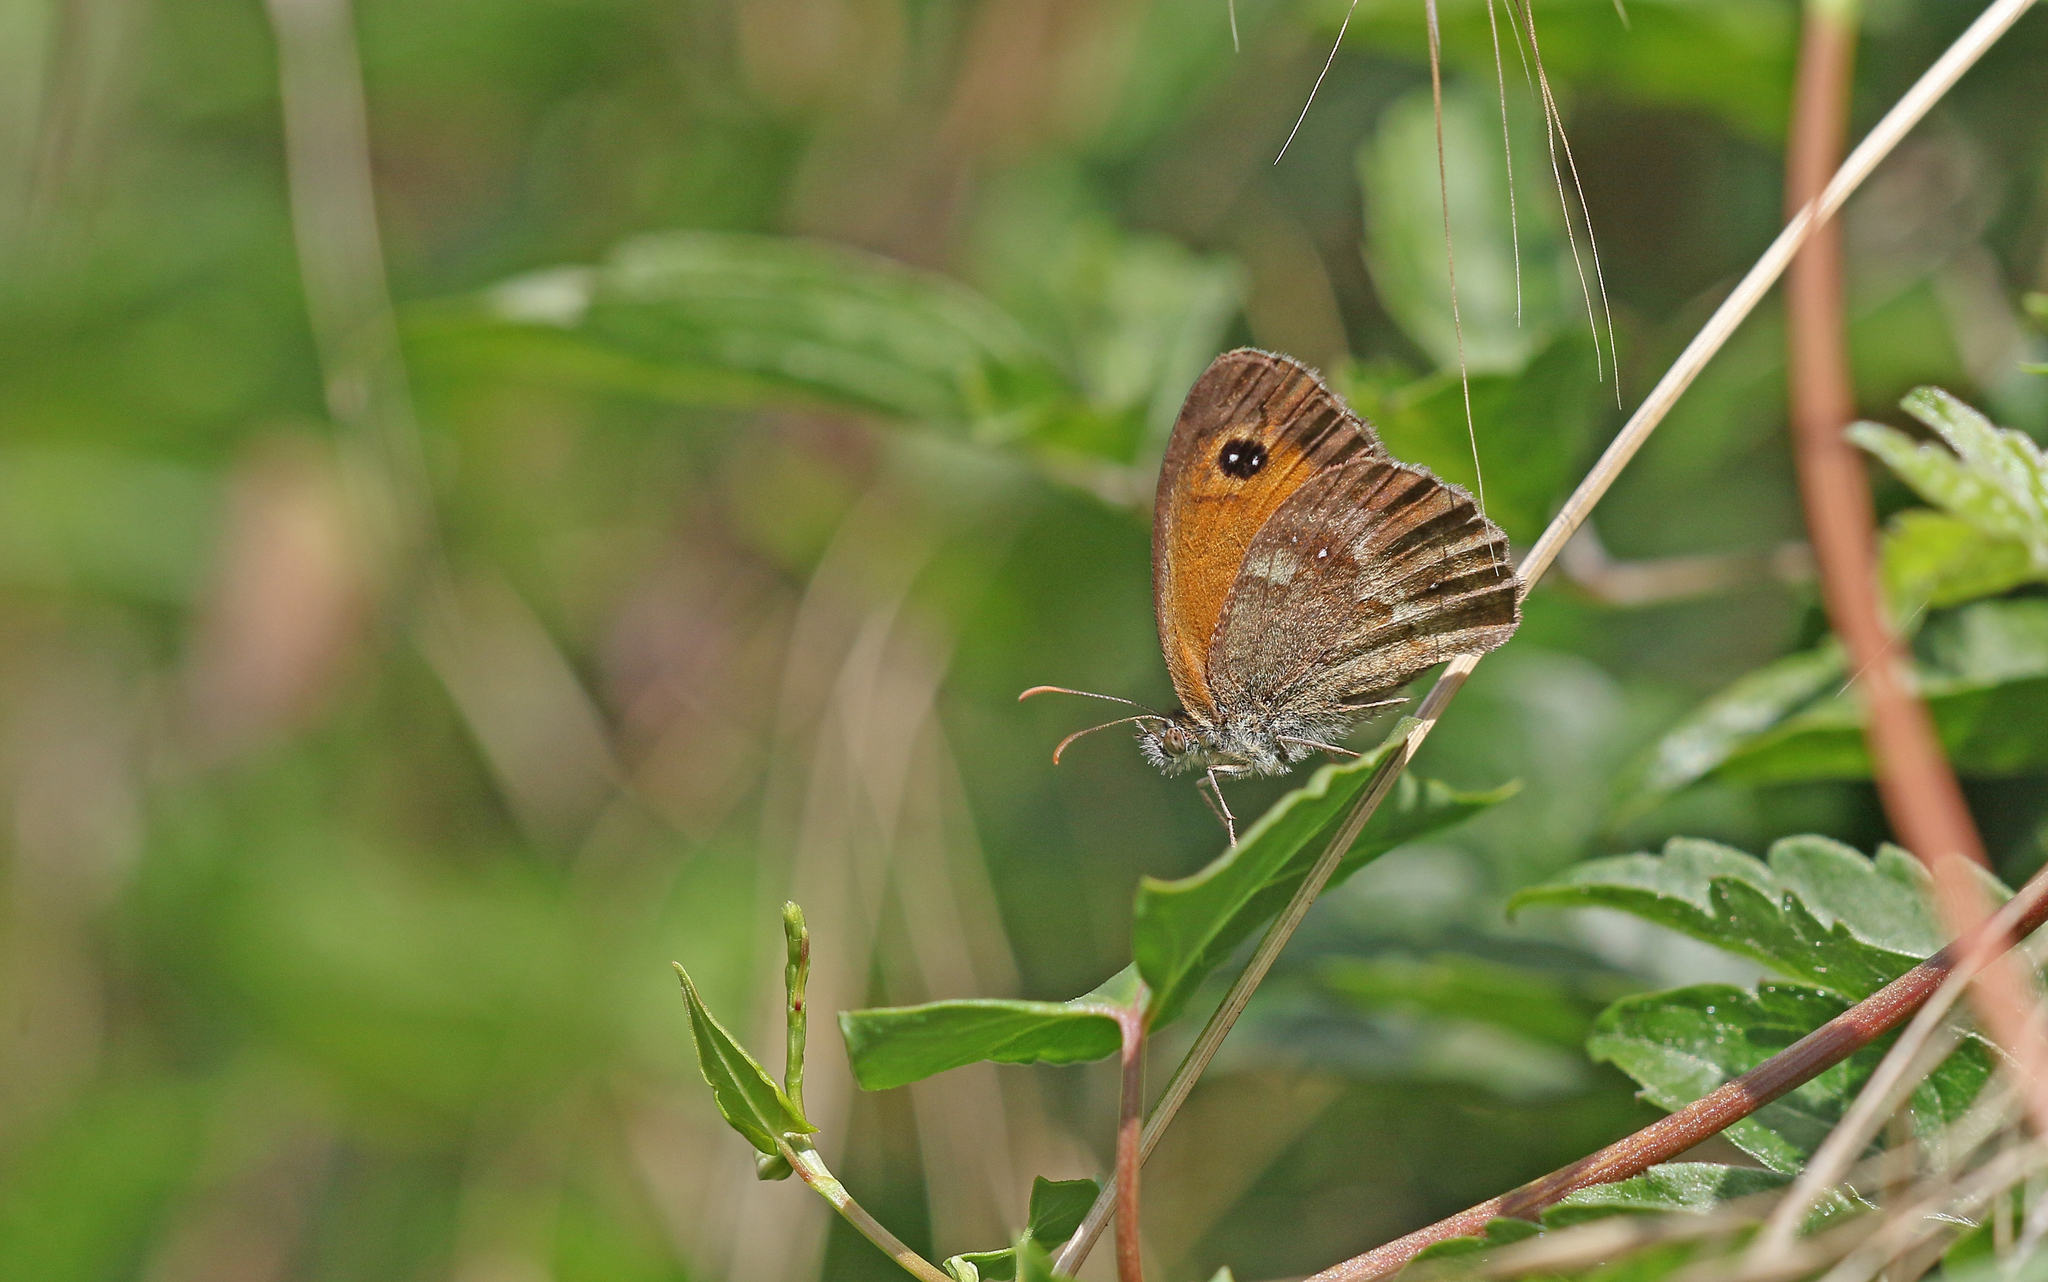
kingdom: Animalia
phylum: Arthropoda
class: Insecta
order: Lepidoptera
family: Nymphalidae
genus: Pyronia
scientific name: Pyronia tithonus
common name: Gatekeeper
